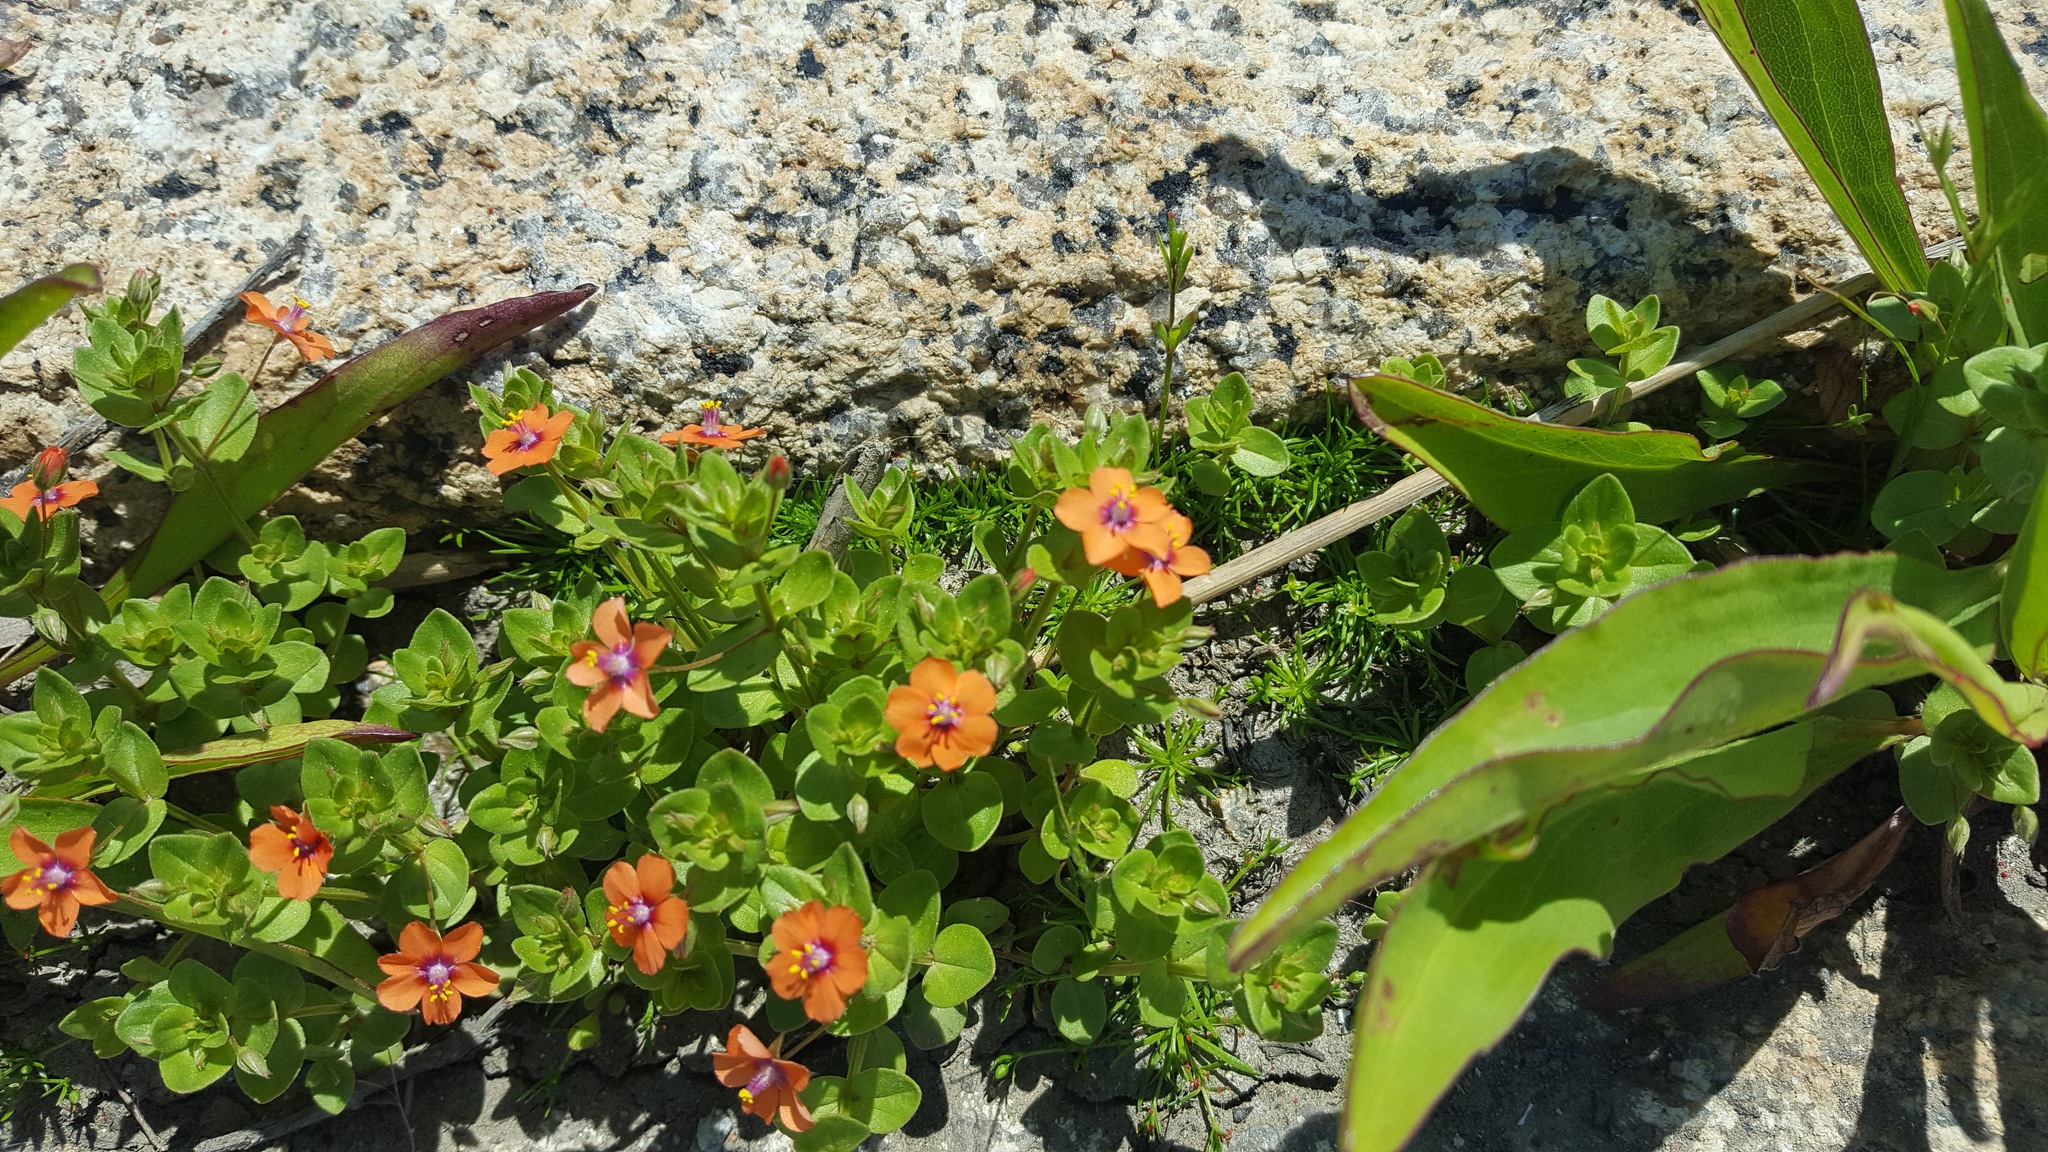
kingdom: Plantae
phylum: Tracheophyta
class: Magnoliopsida
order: Ericales
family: Primulaceae
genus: Lysimachia
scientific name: Lysimachia arvensis
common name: Scarlet pimpernel
